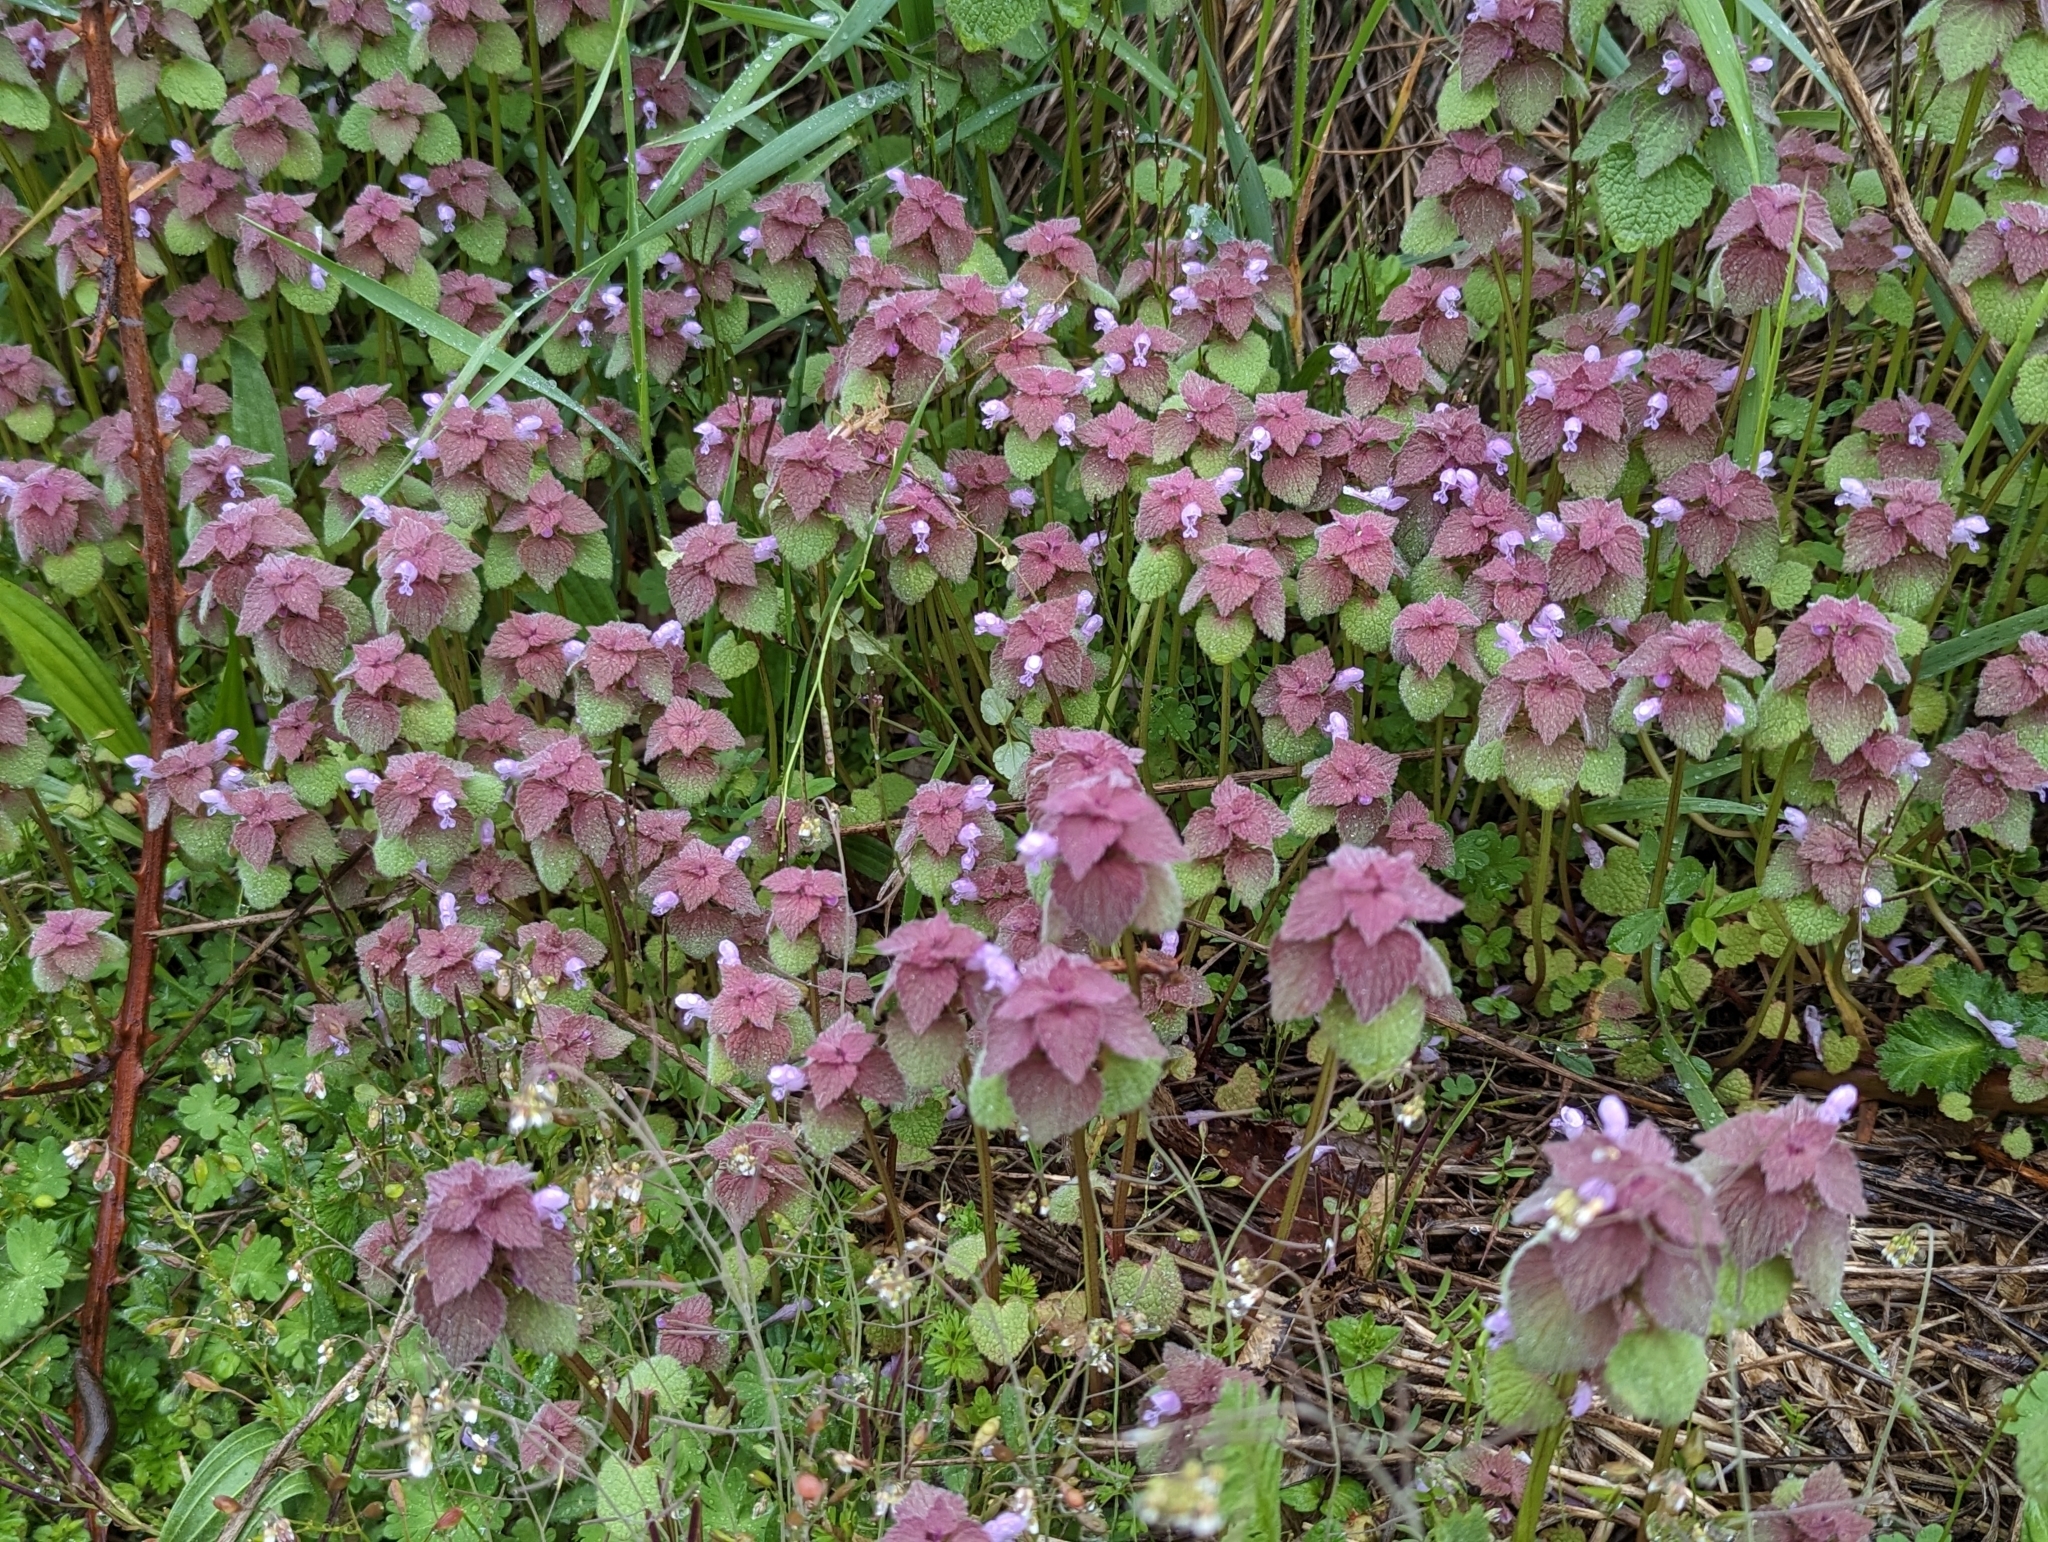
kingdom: Plantae
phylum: Tracheophyta
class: Magnoliopsida
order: Lamiales
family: Lamiaceae
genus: Lamium
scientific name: Lamium purpureum
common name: Red dead-nettle
